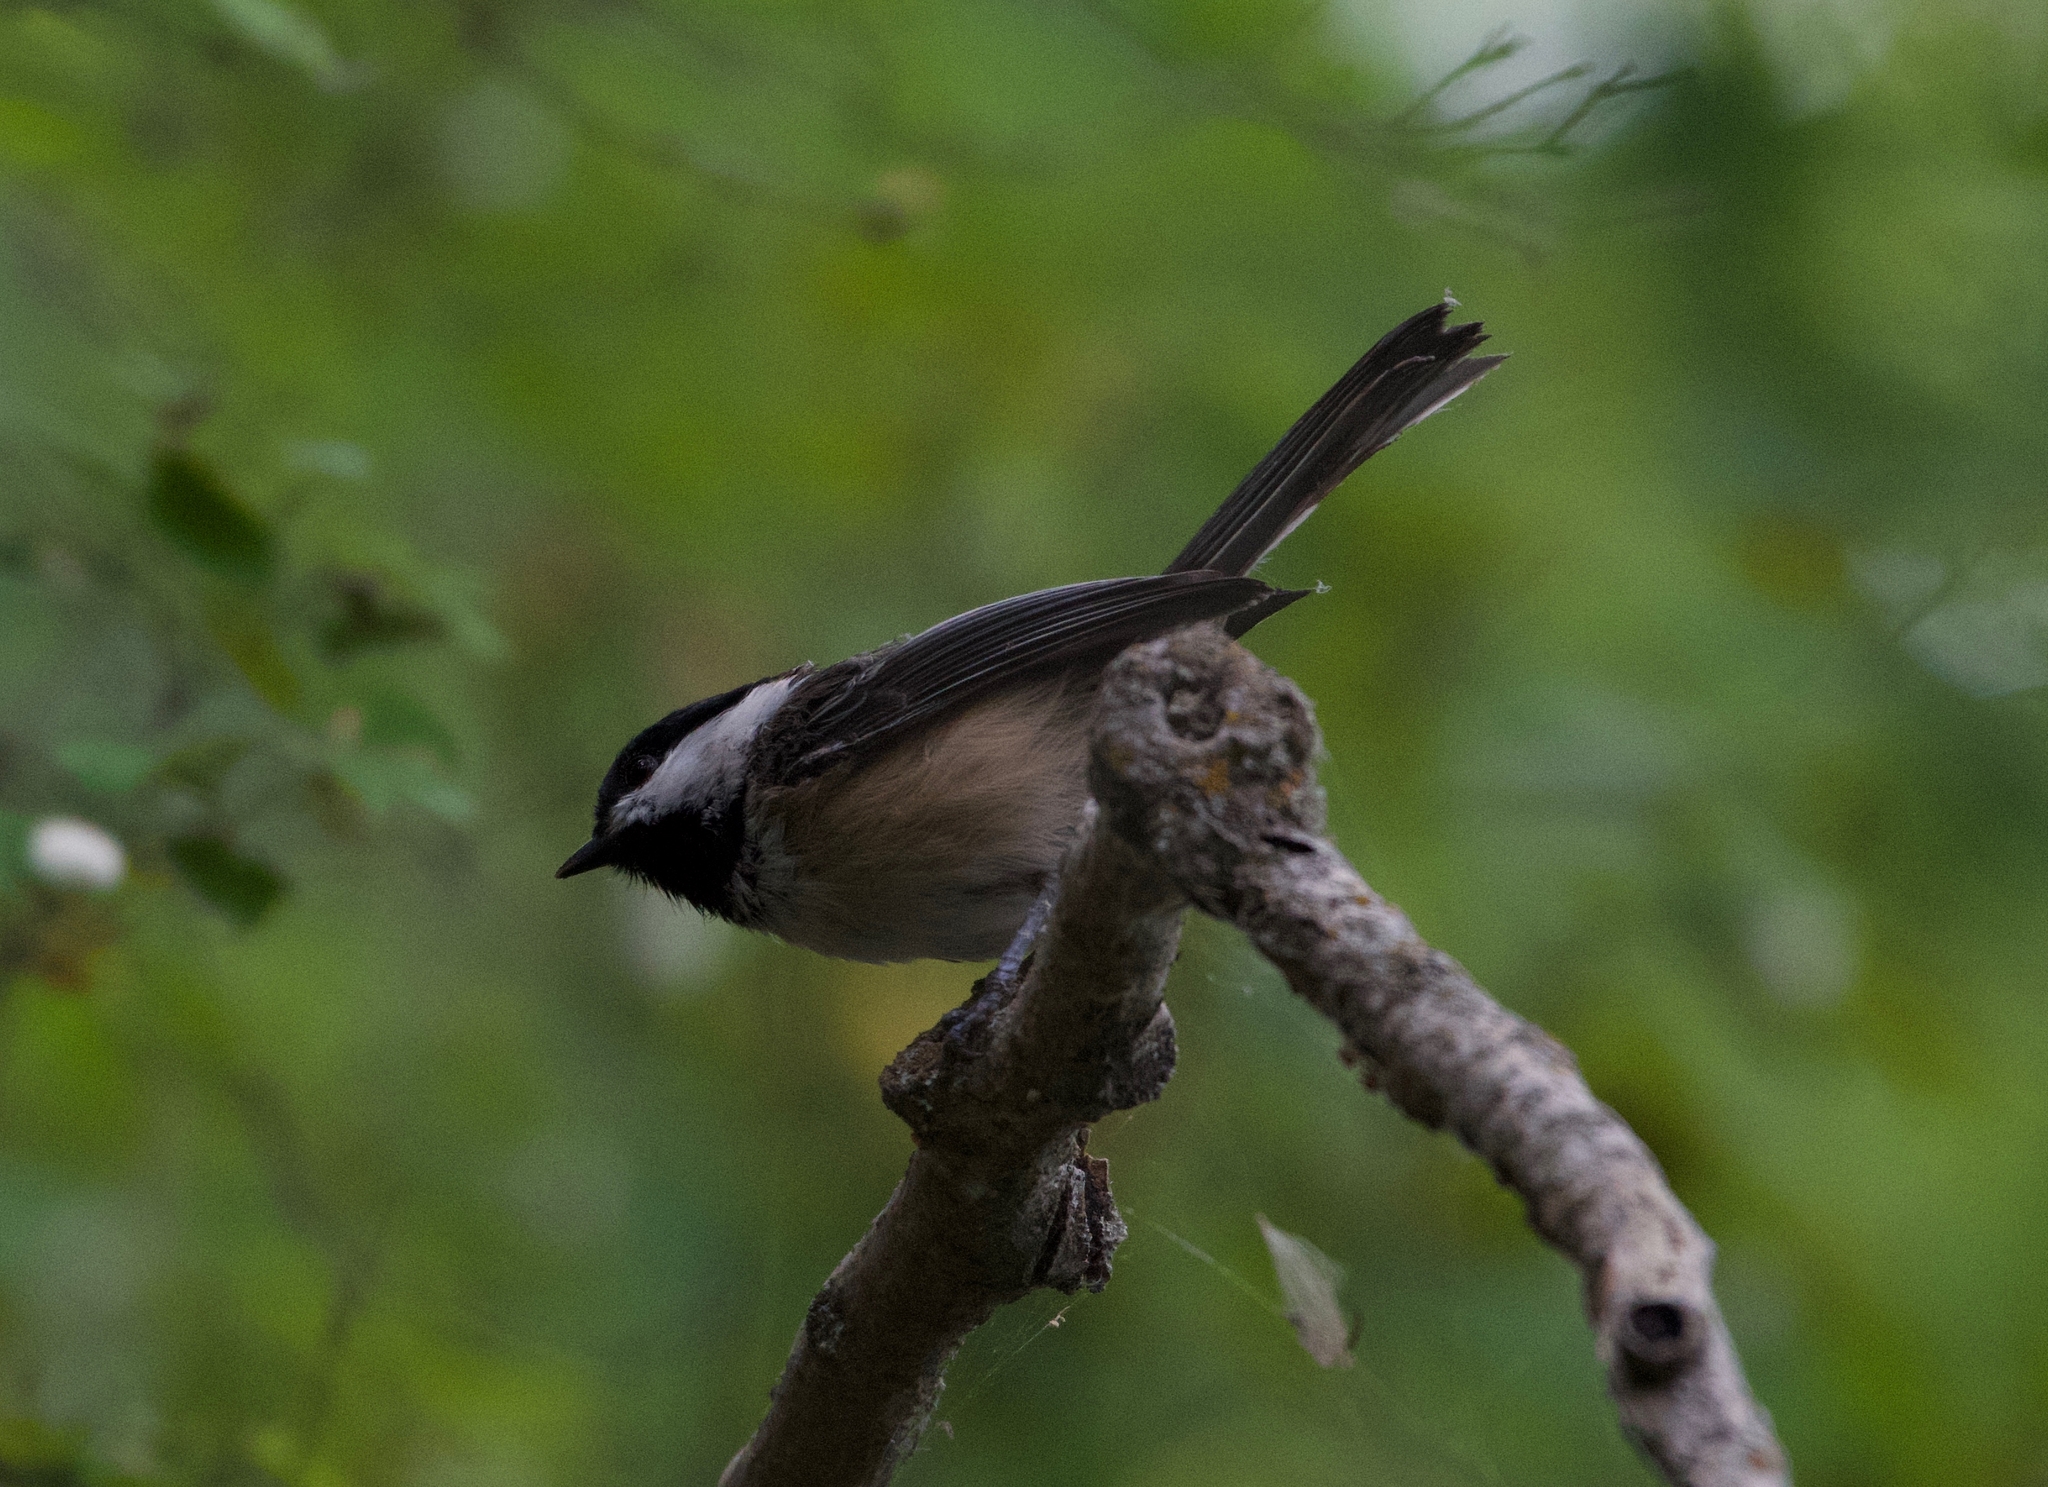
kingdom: Animalia
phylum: Chordata
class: Aves
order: Passeriformes
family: Paridae
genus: Poecile
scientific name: Poecile atricapillus
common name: Black-capped chickadee
